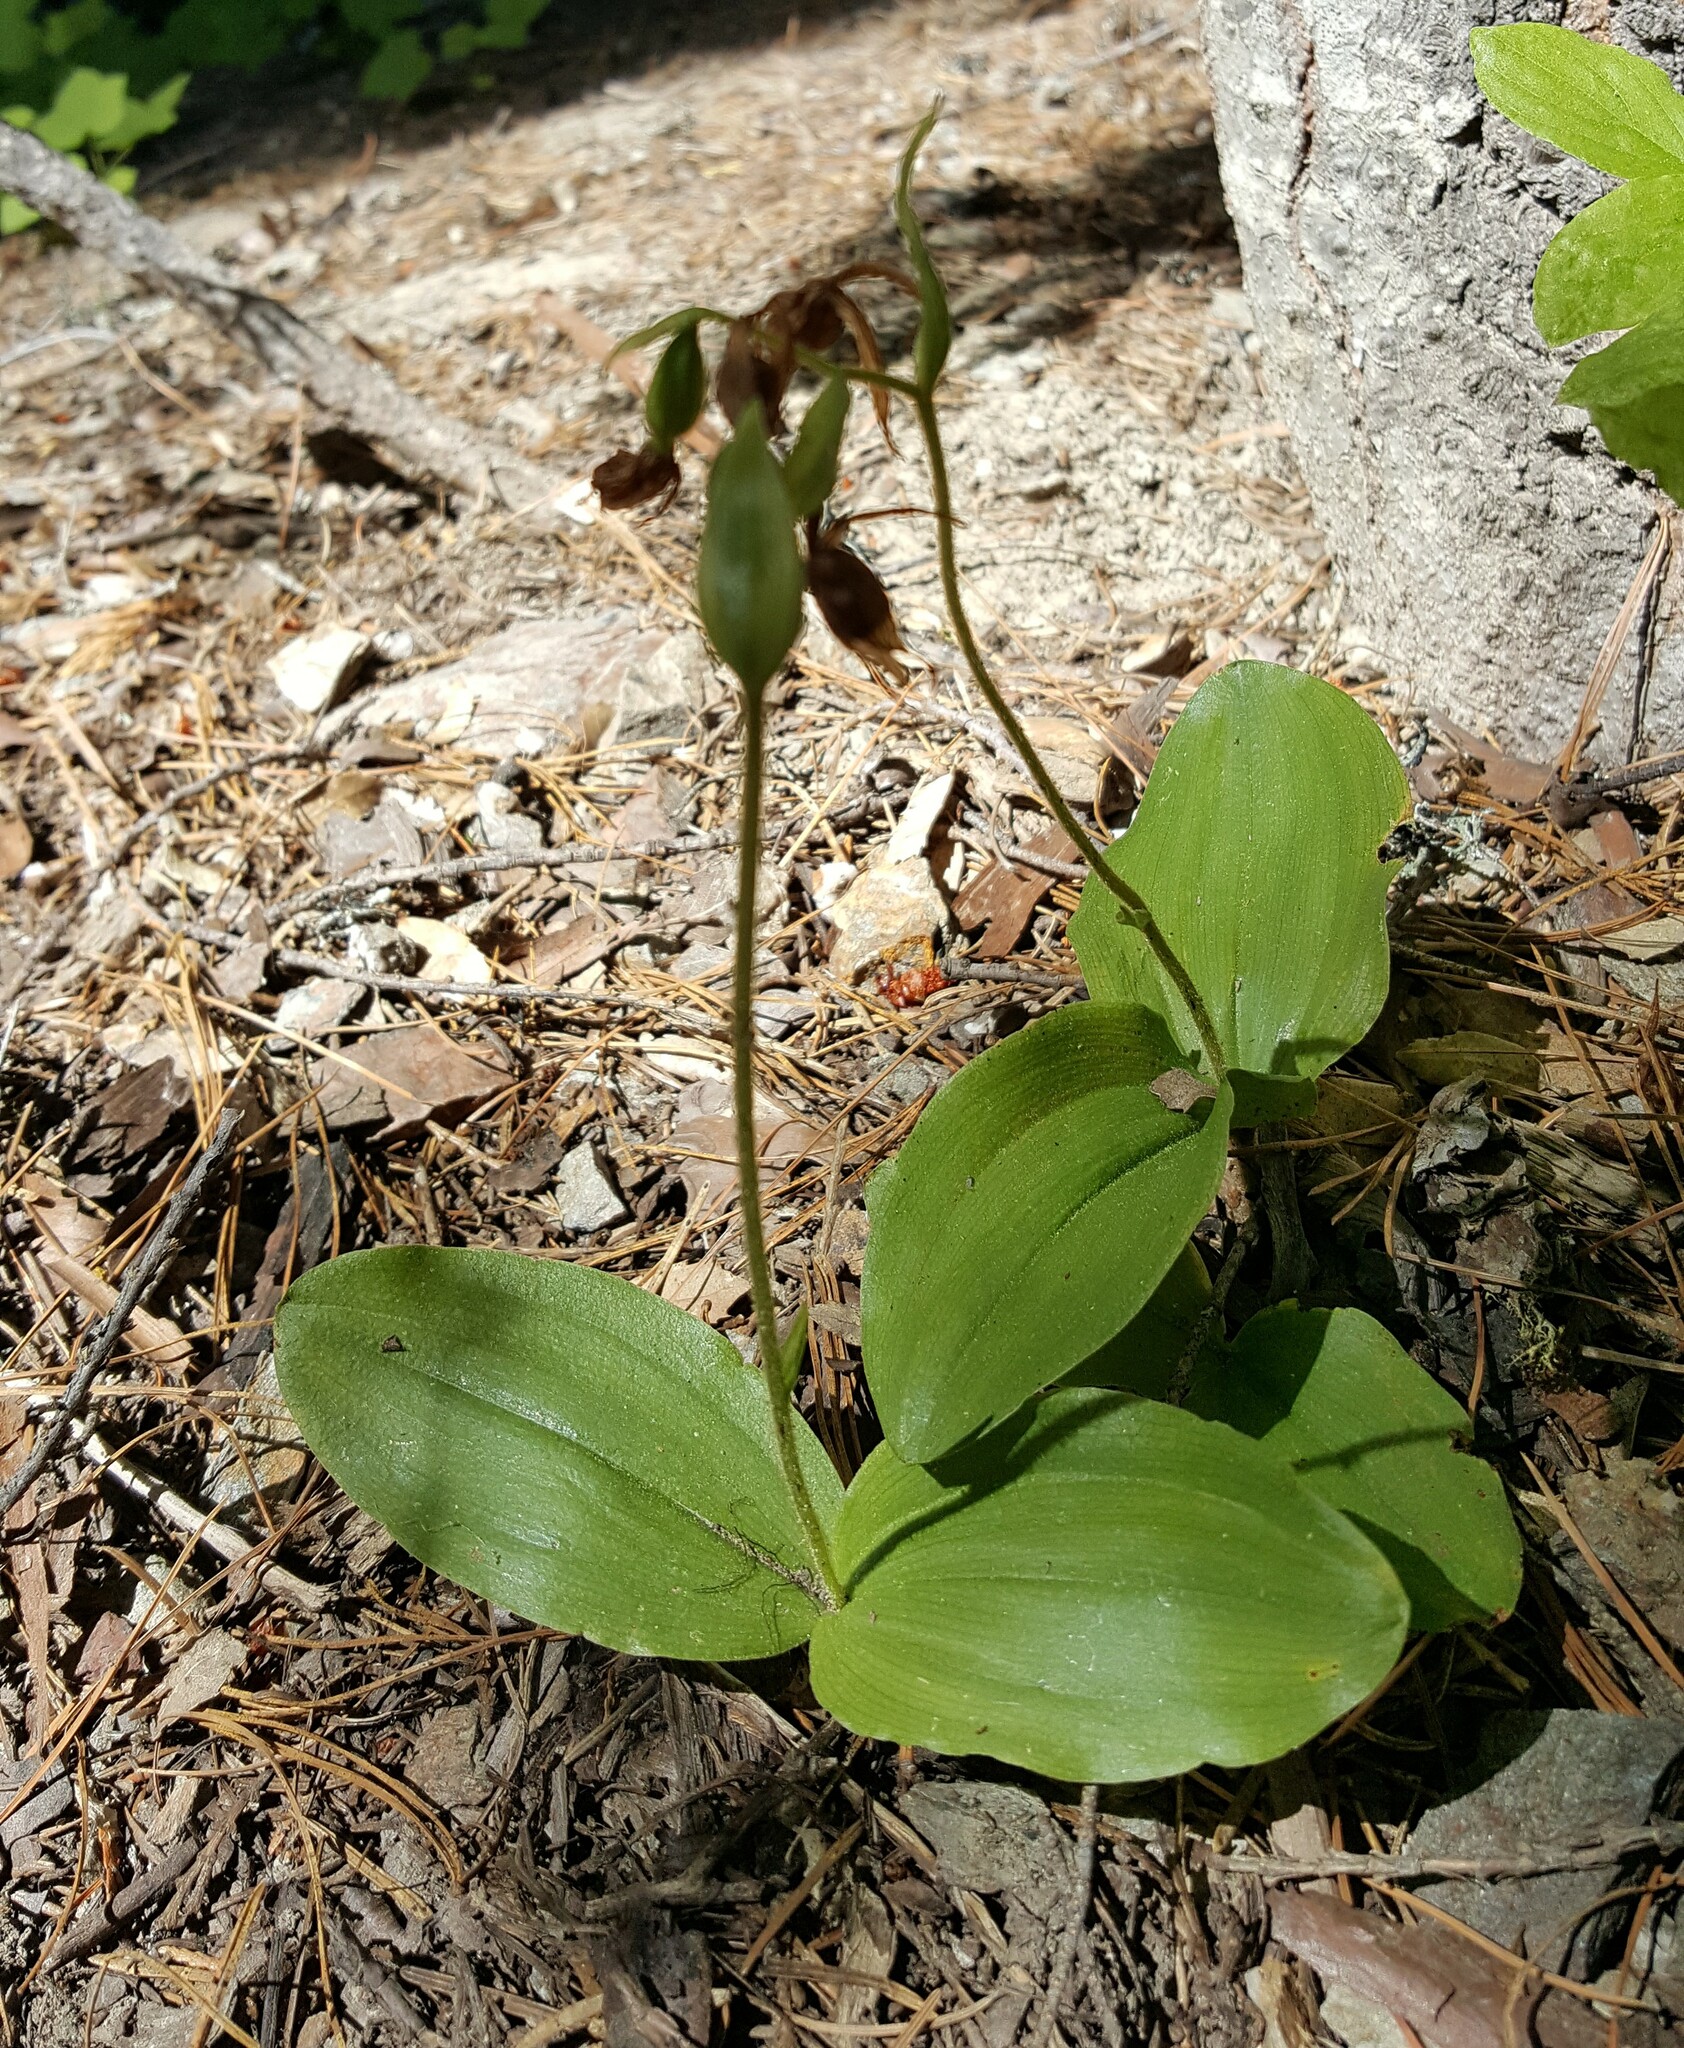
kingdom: Plantae
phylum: Tracheophyta
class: Liliopsida
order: Asparagales
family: Orchidaceae
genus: Cypripedium
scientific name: Cypripedium fasciculatum
